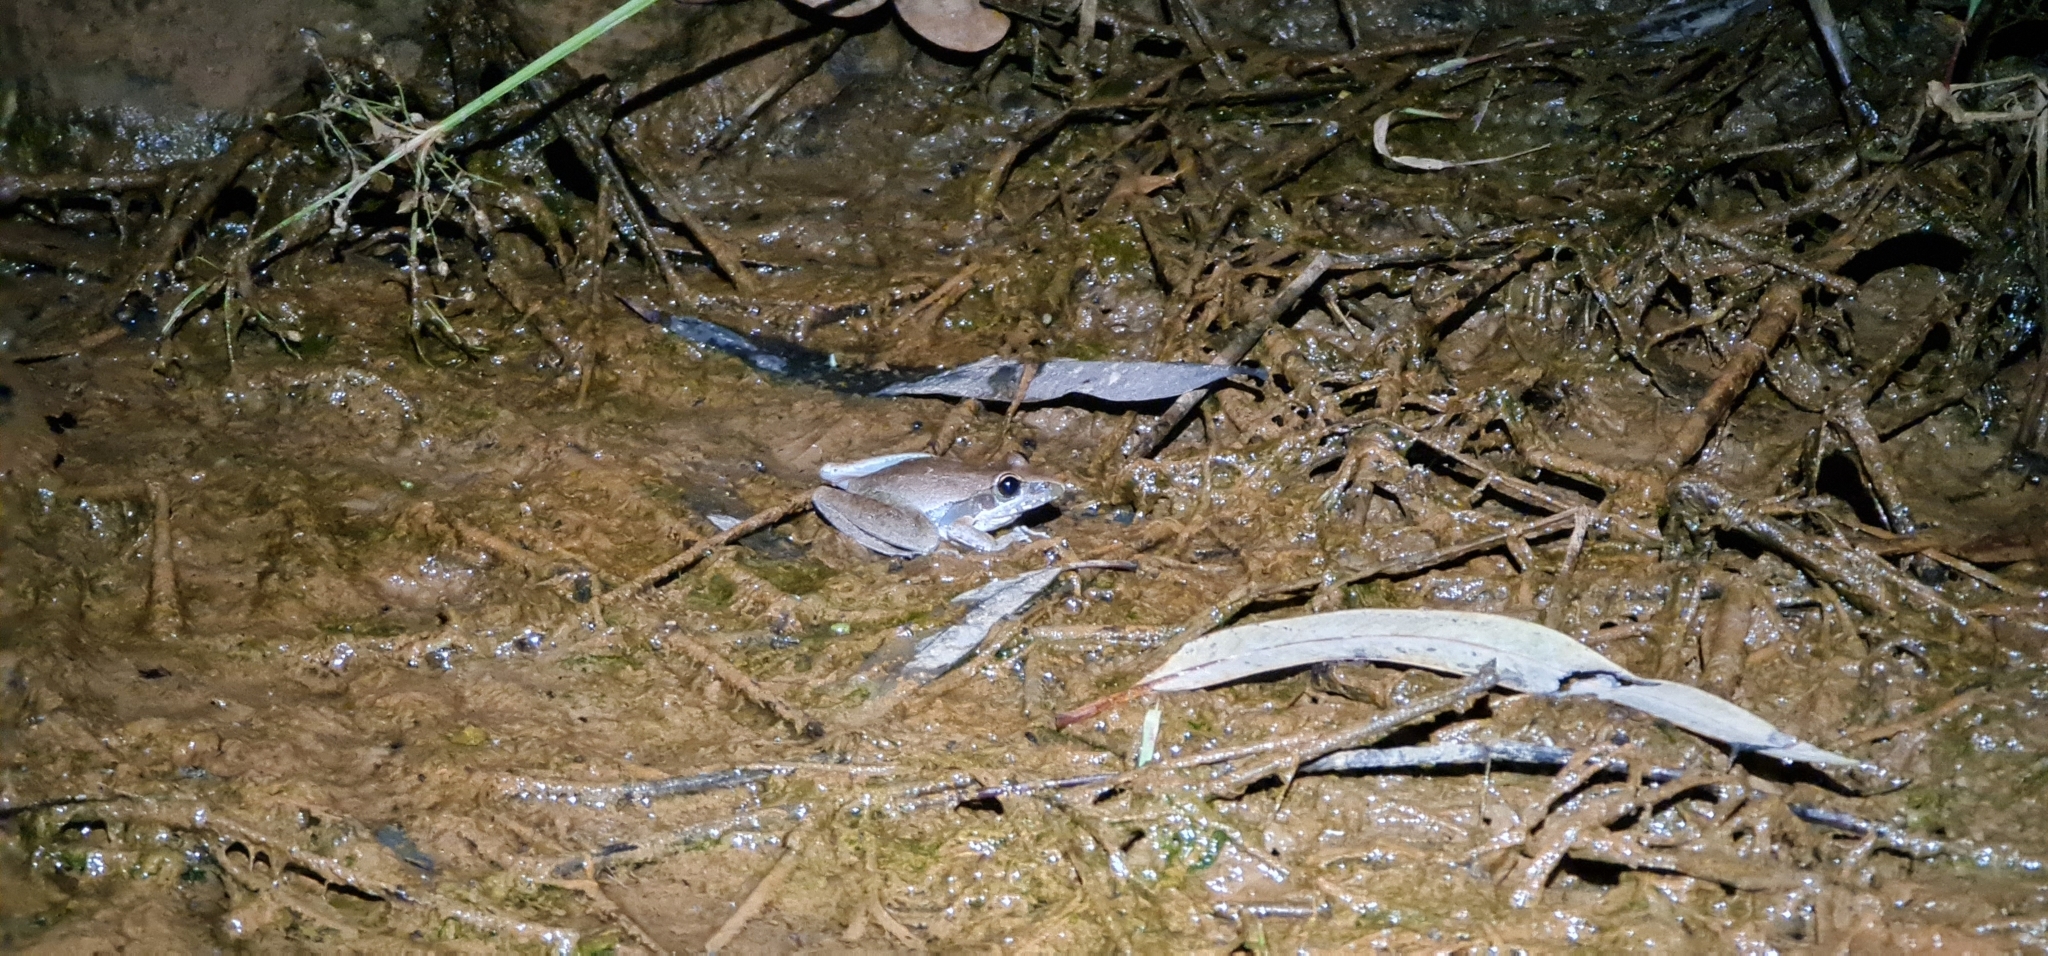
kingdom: Animalia
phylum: Chordata
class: Amphibia
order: Anura
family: Pelodryadidae
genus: Litoria
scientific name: Litoria watjulumensis
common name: Wotjulum frog
